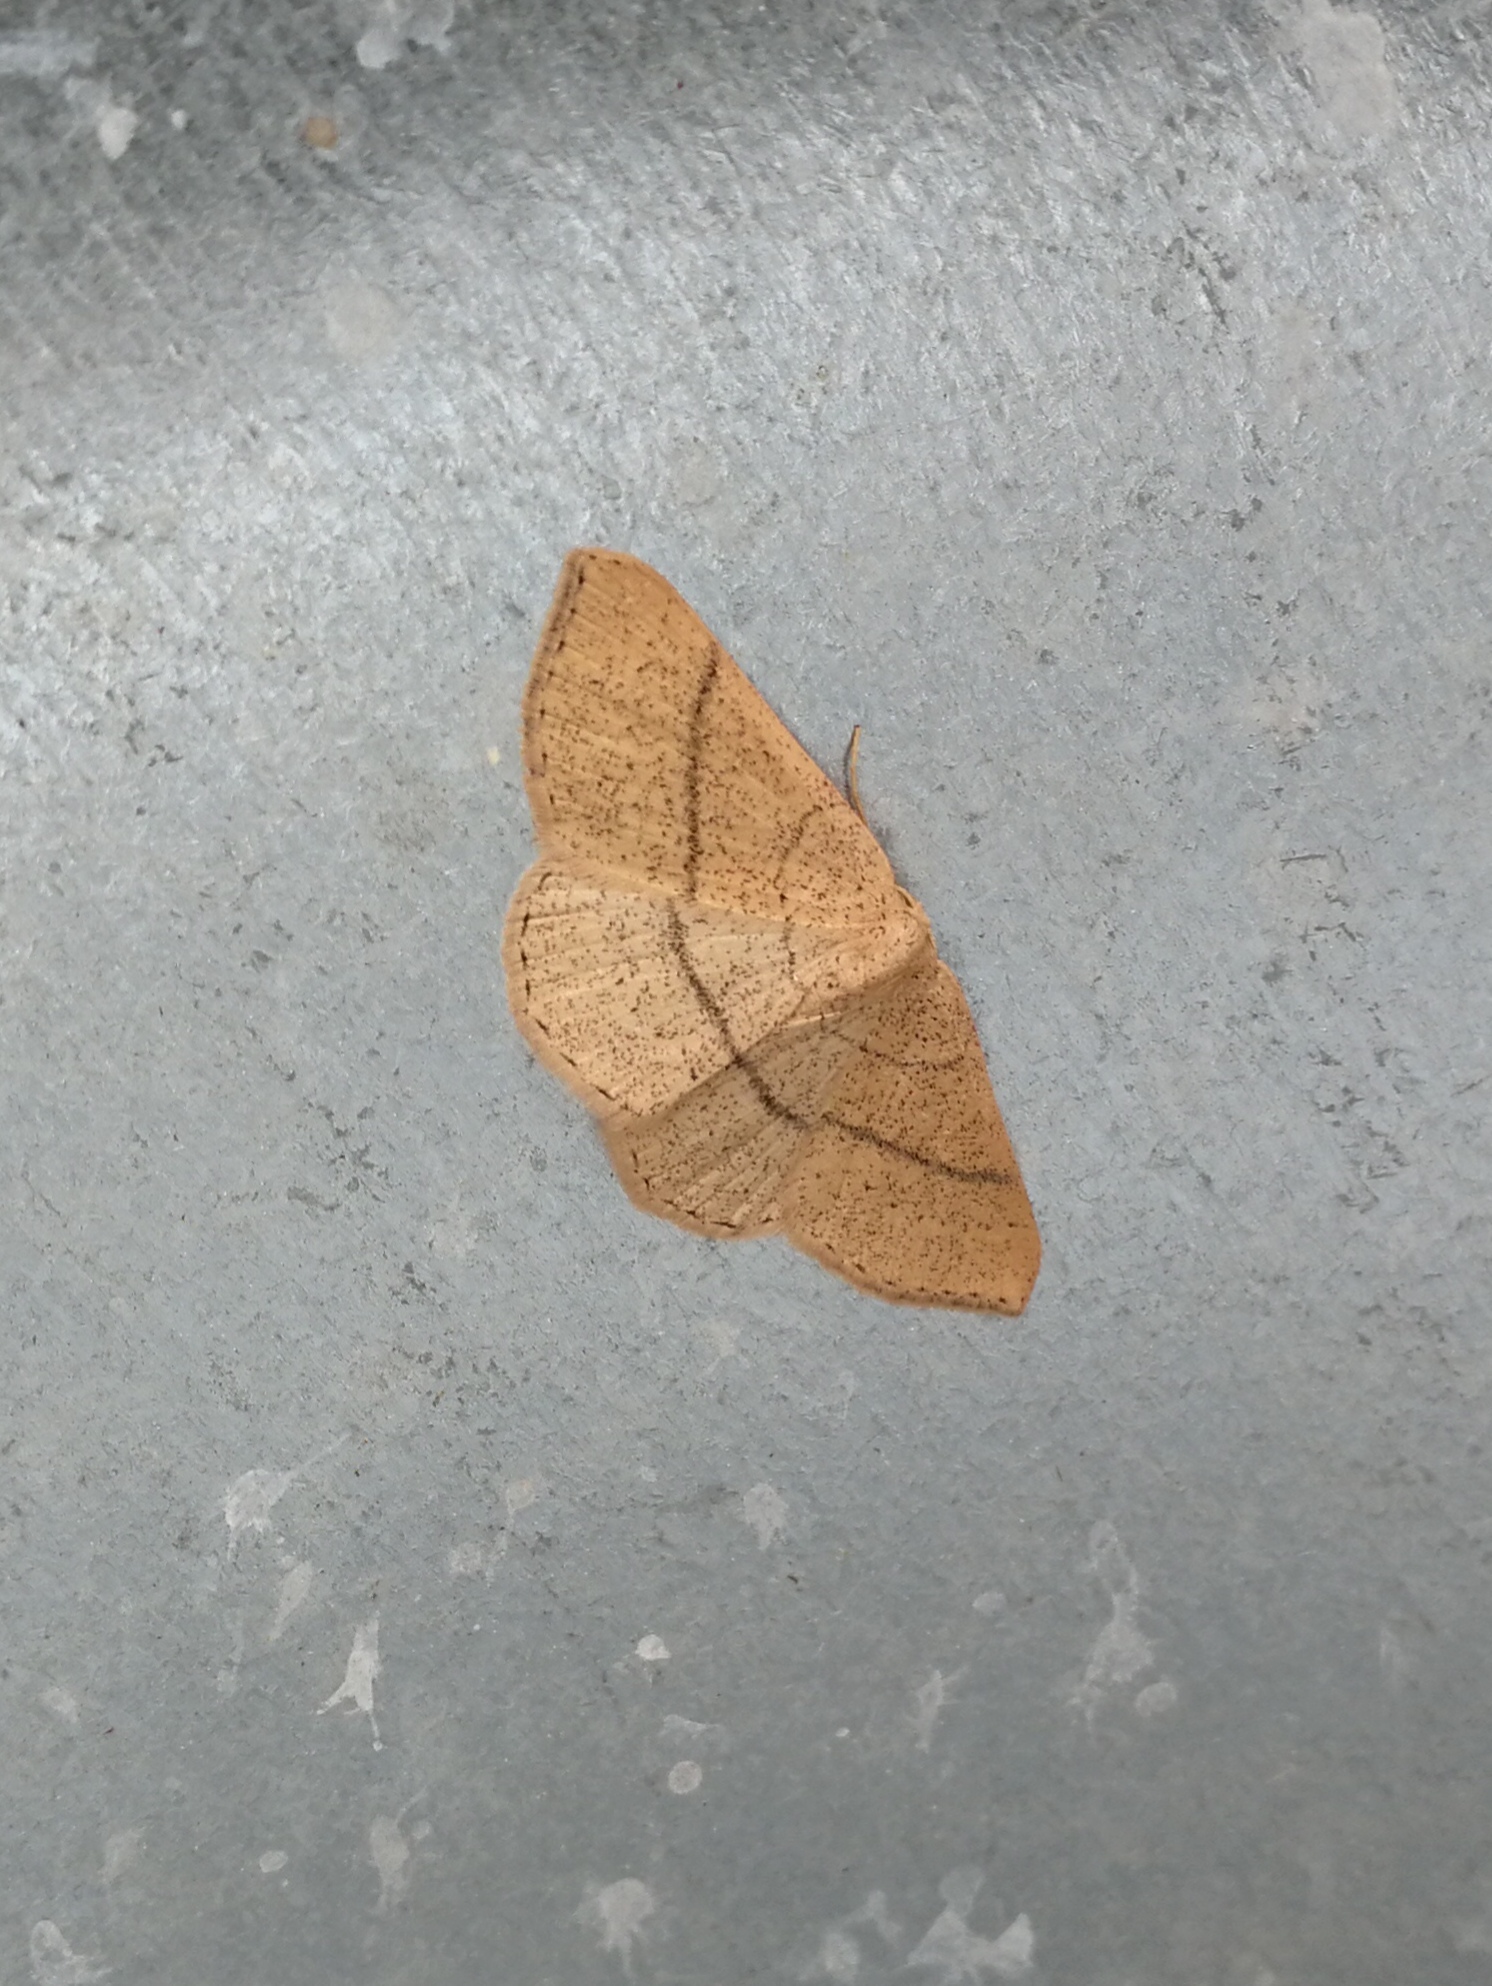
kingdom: Animalia
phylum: Arthropoda
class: Insecta
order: Lepidoptera
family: Geometridae
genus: Cyclophora
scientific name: Cyclophora suppunctaria
